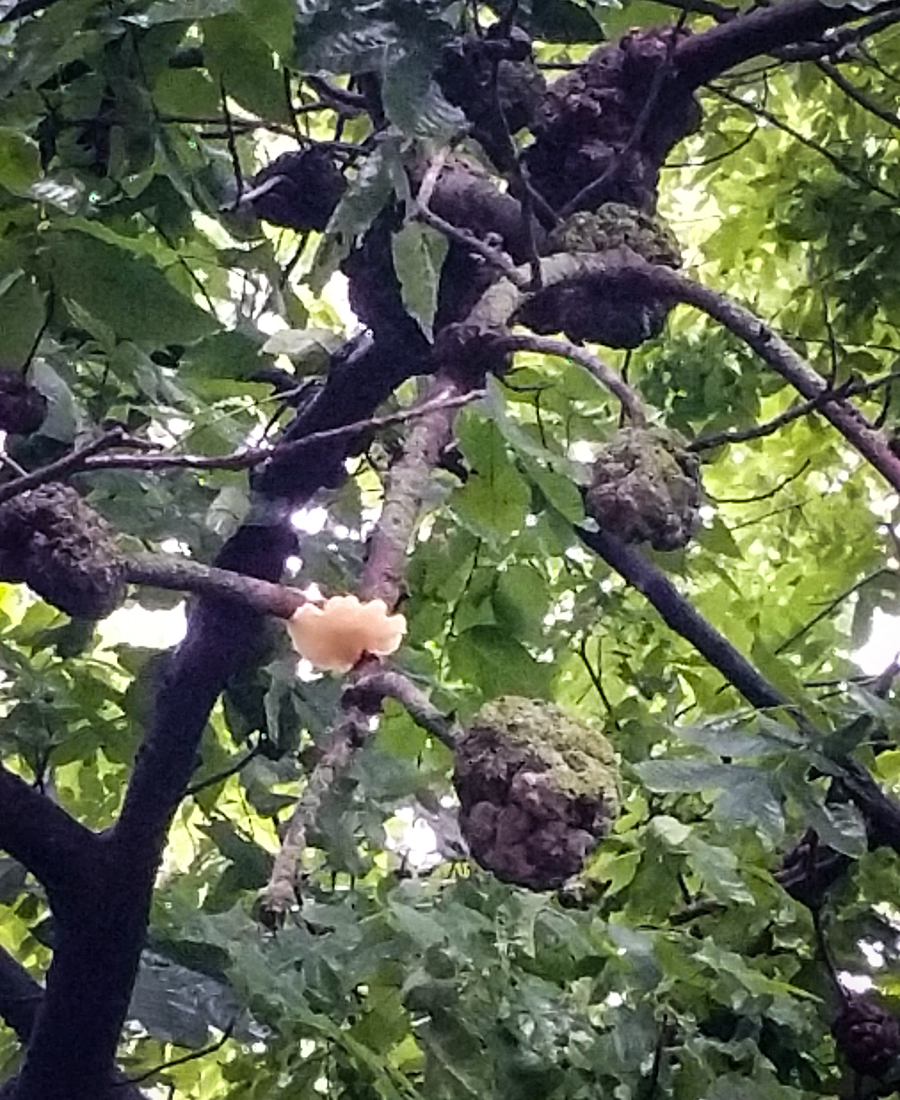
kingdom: Fungi
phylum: Ascomycota
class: Dothideomycetes
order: Venturiales
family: Venturiaceae
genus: Apiosporina
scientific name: Apiosporina morbosa
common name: Black knot
